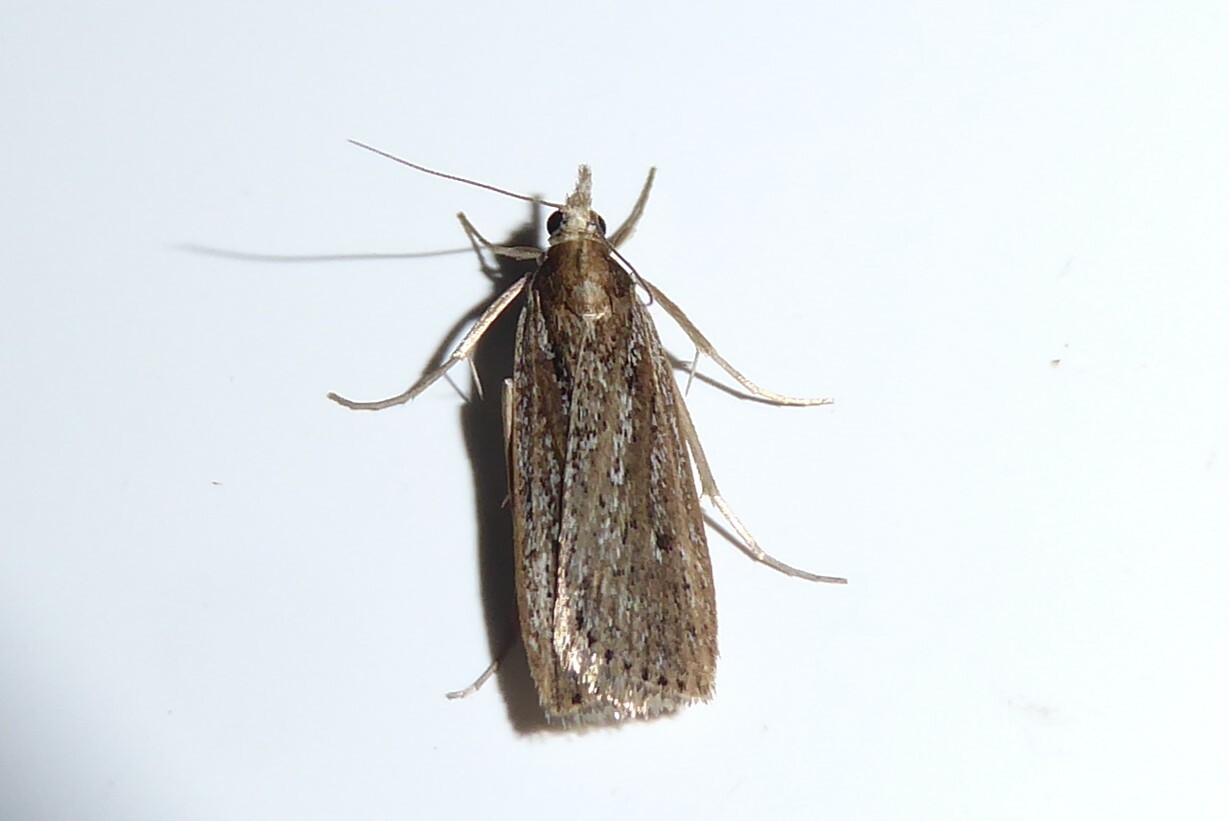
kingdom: Animalia
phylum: Arthropoda
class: Insecta
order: Lepidoptera
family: Crambidae
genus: Eudonia
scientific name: Eudonia sabulosella
